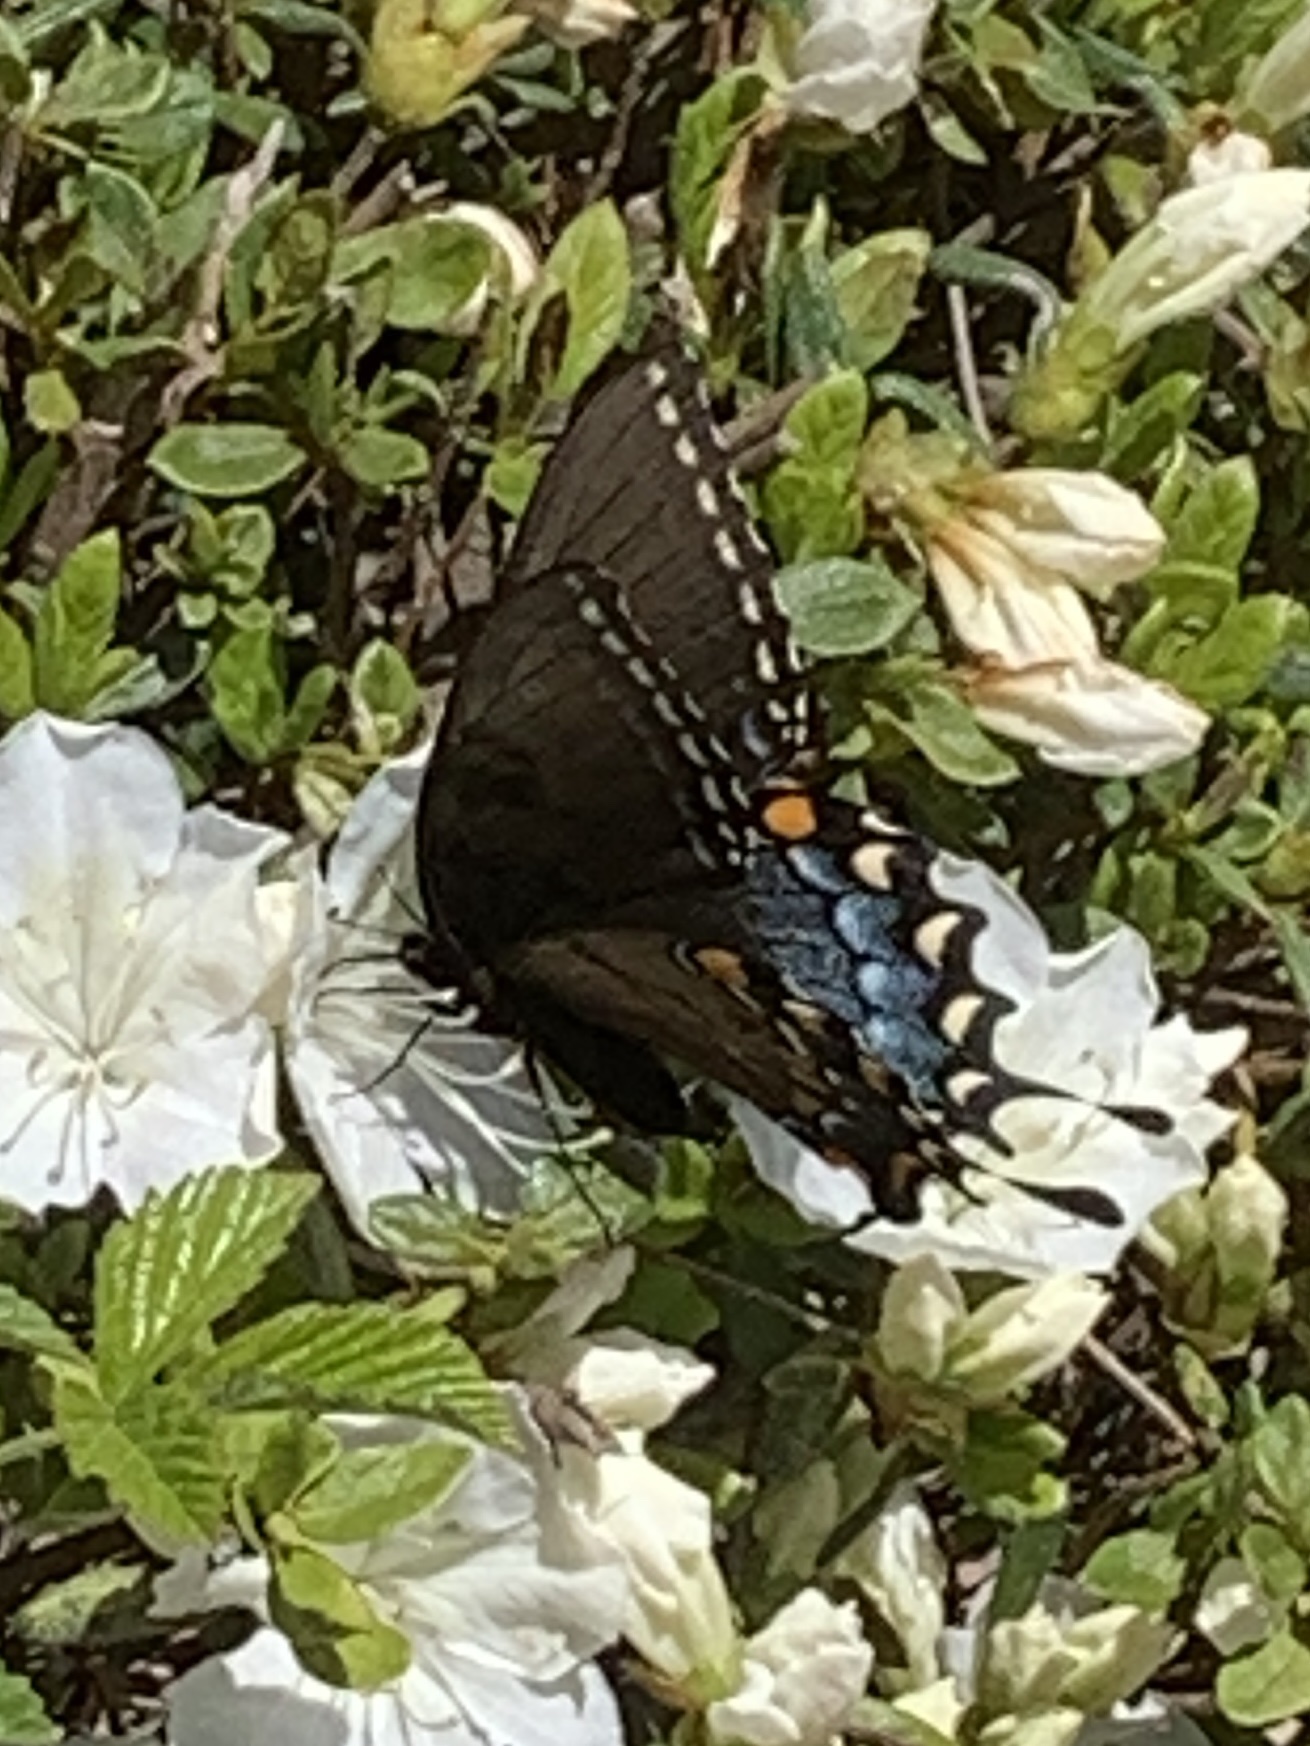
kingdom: Animalia
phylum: Arthropoda
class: Insecta
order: Lepidoptera
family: Papilionidae
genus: Papilio
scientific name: Papilio glaucus
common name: Tiger swallowtail
